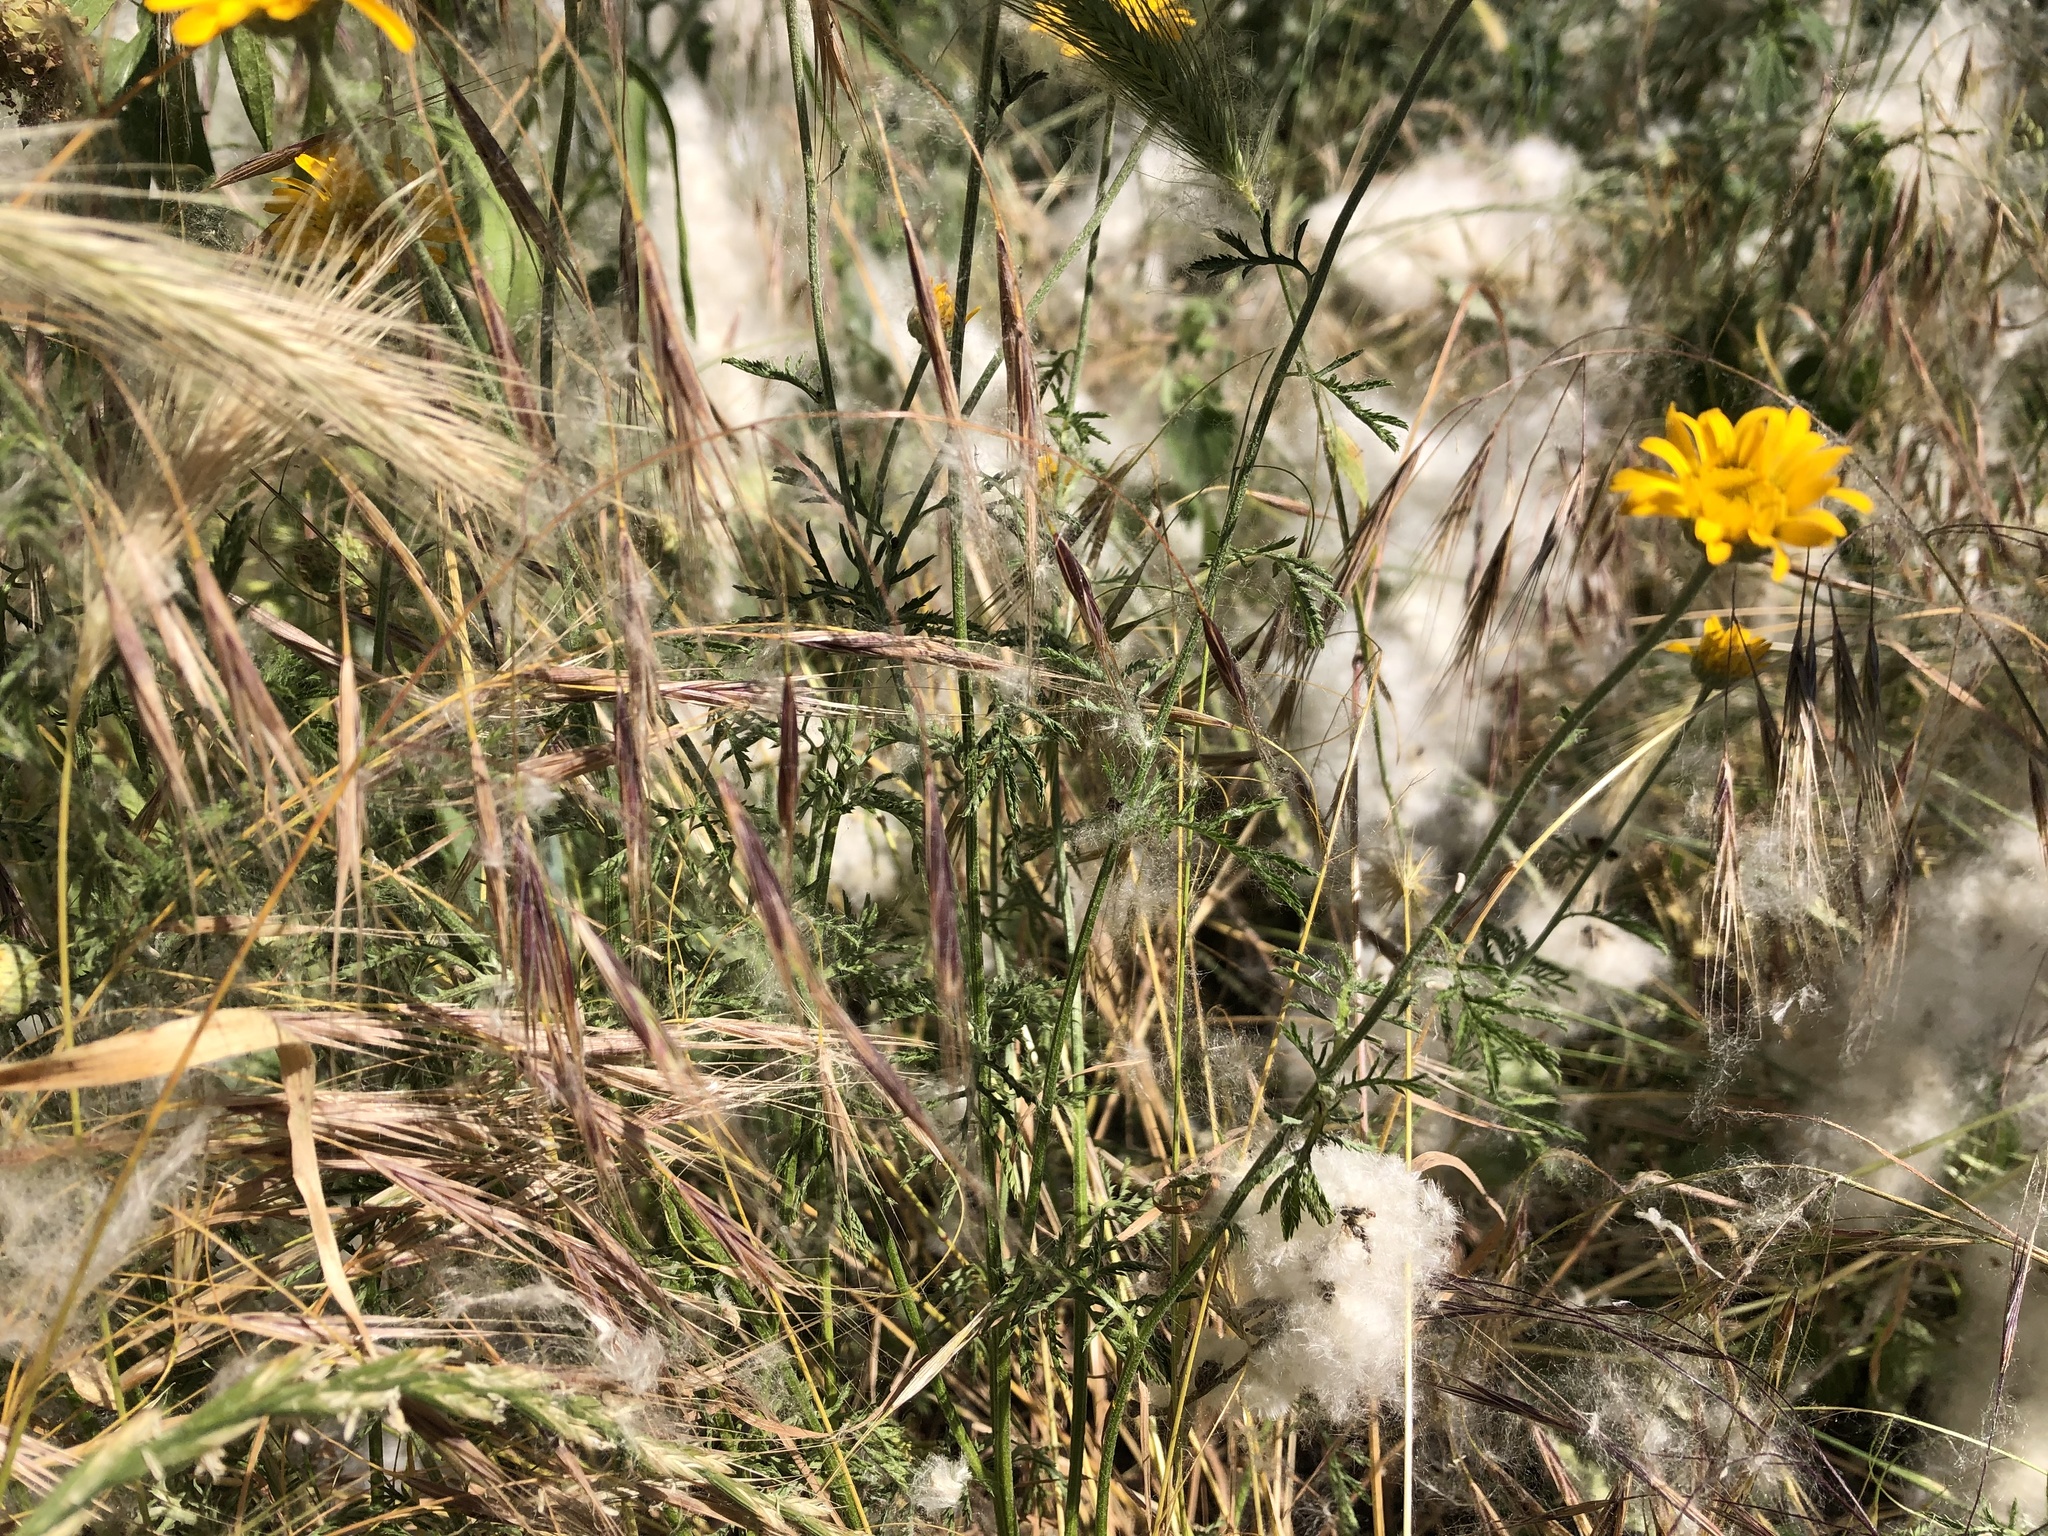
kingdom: Plantae
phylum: Tracheophyta
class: Magnoliopsida
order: Asterales
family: Asteraceae
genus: Cota
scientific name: Cota tinctoria
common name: Golden chamomile
